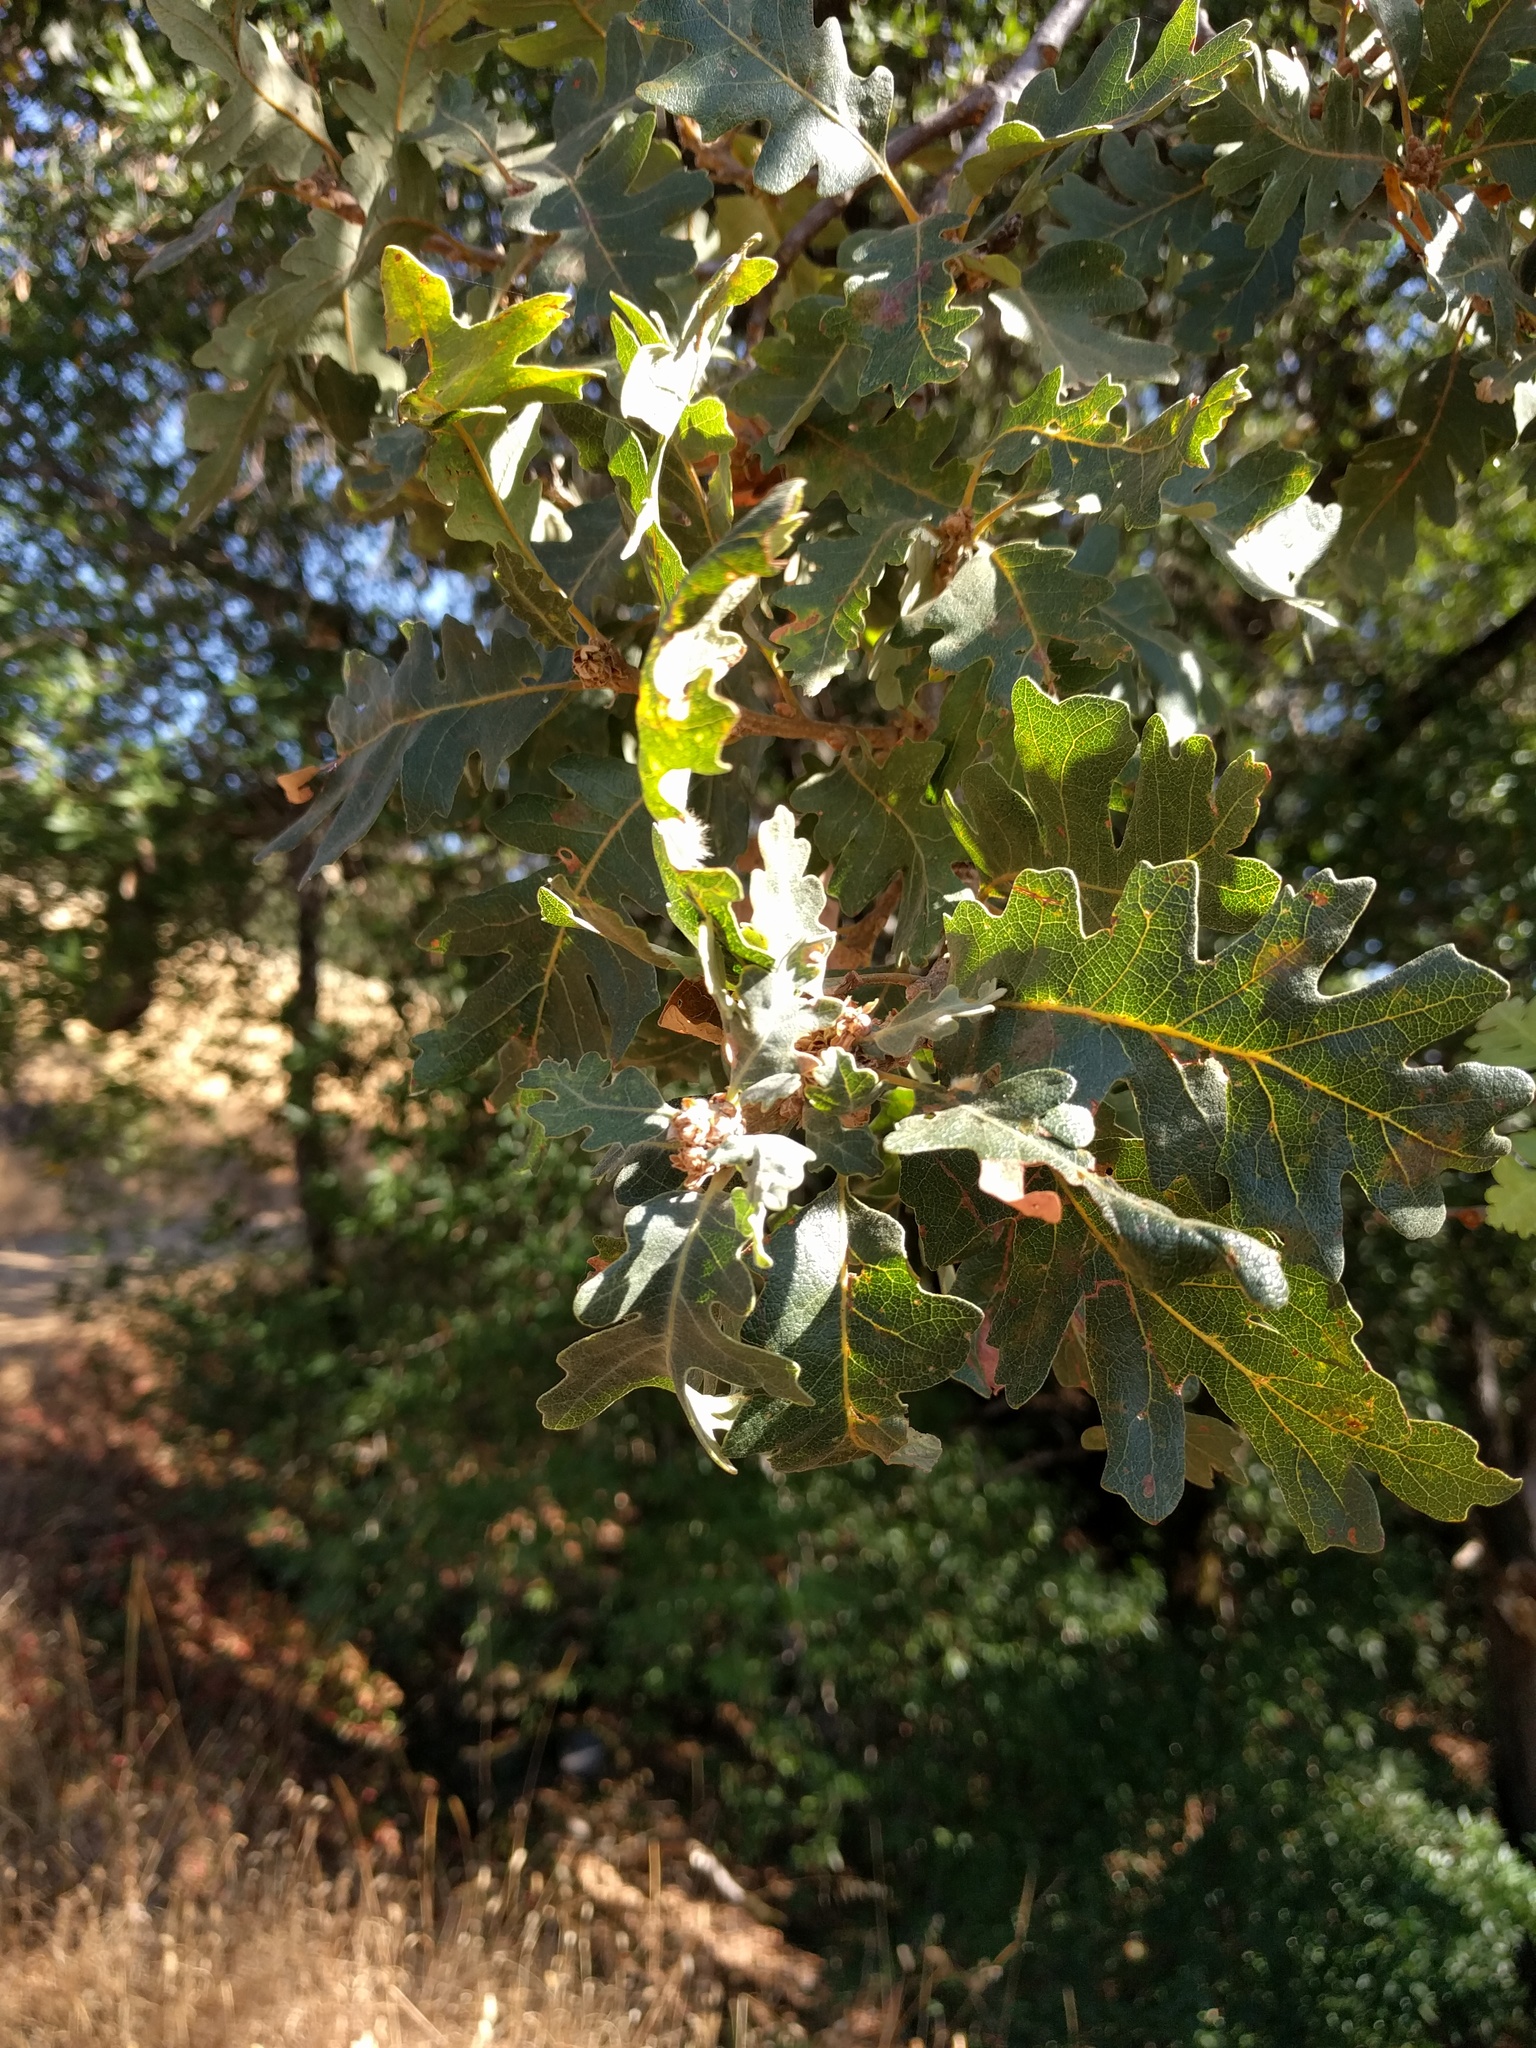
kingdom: Plantae
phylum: Tracheophyta
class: Magnoliopsida
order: Fagales
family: Fagaceae
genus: Quercus
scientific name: Quercus lobata
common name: Valley oak
